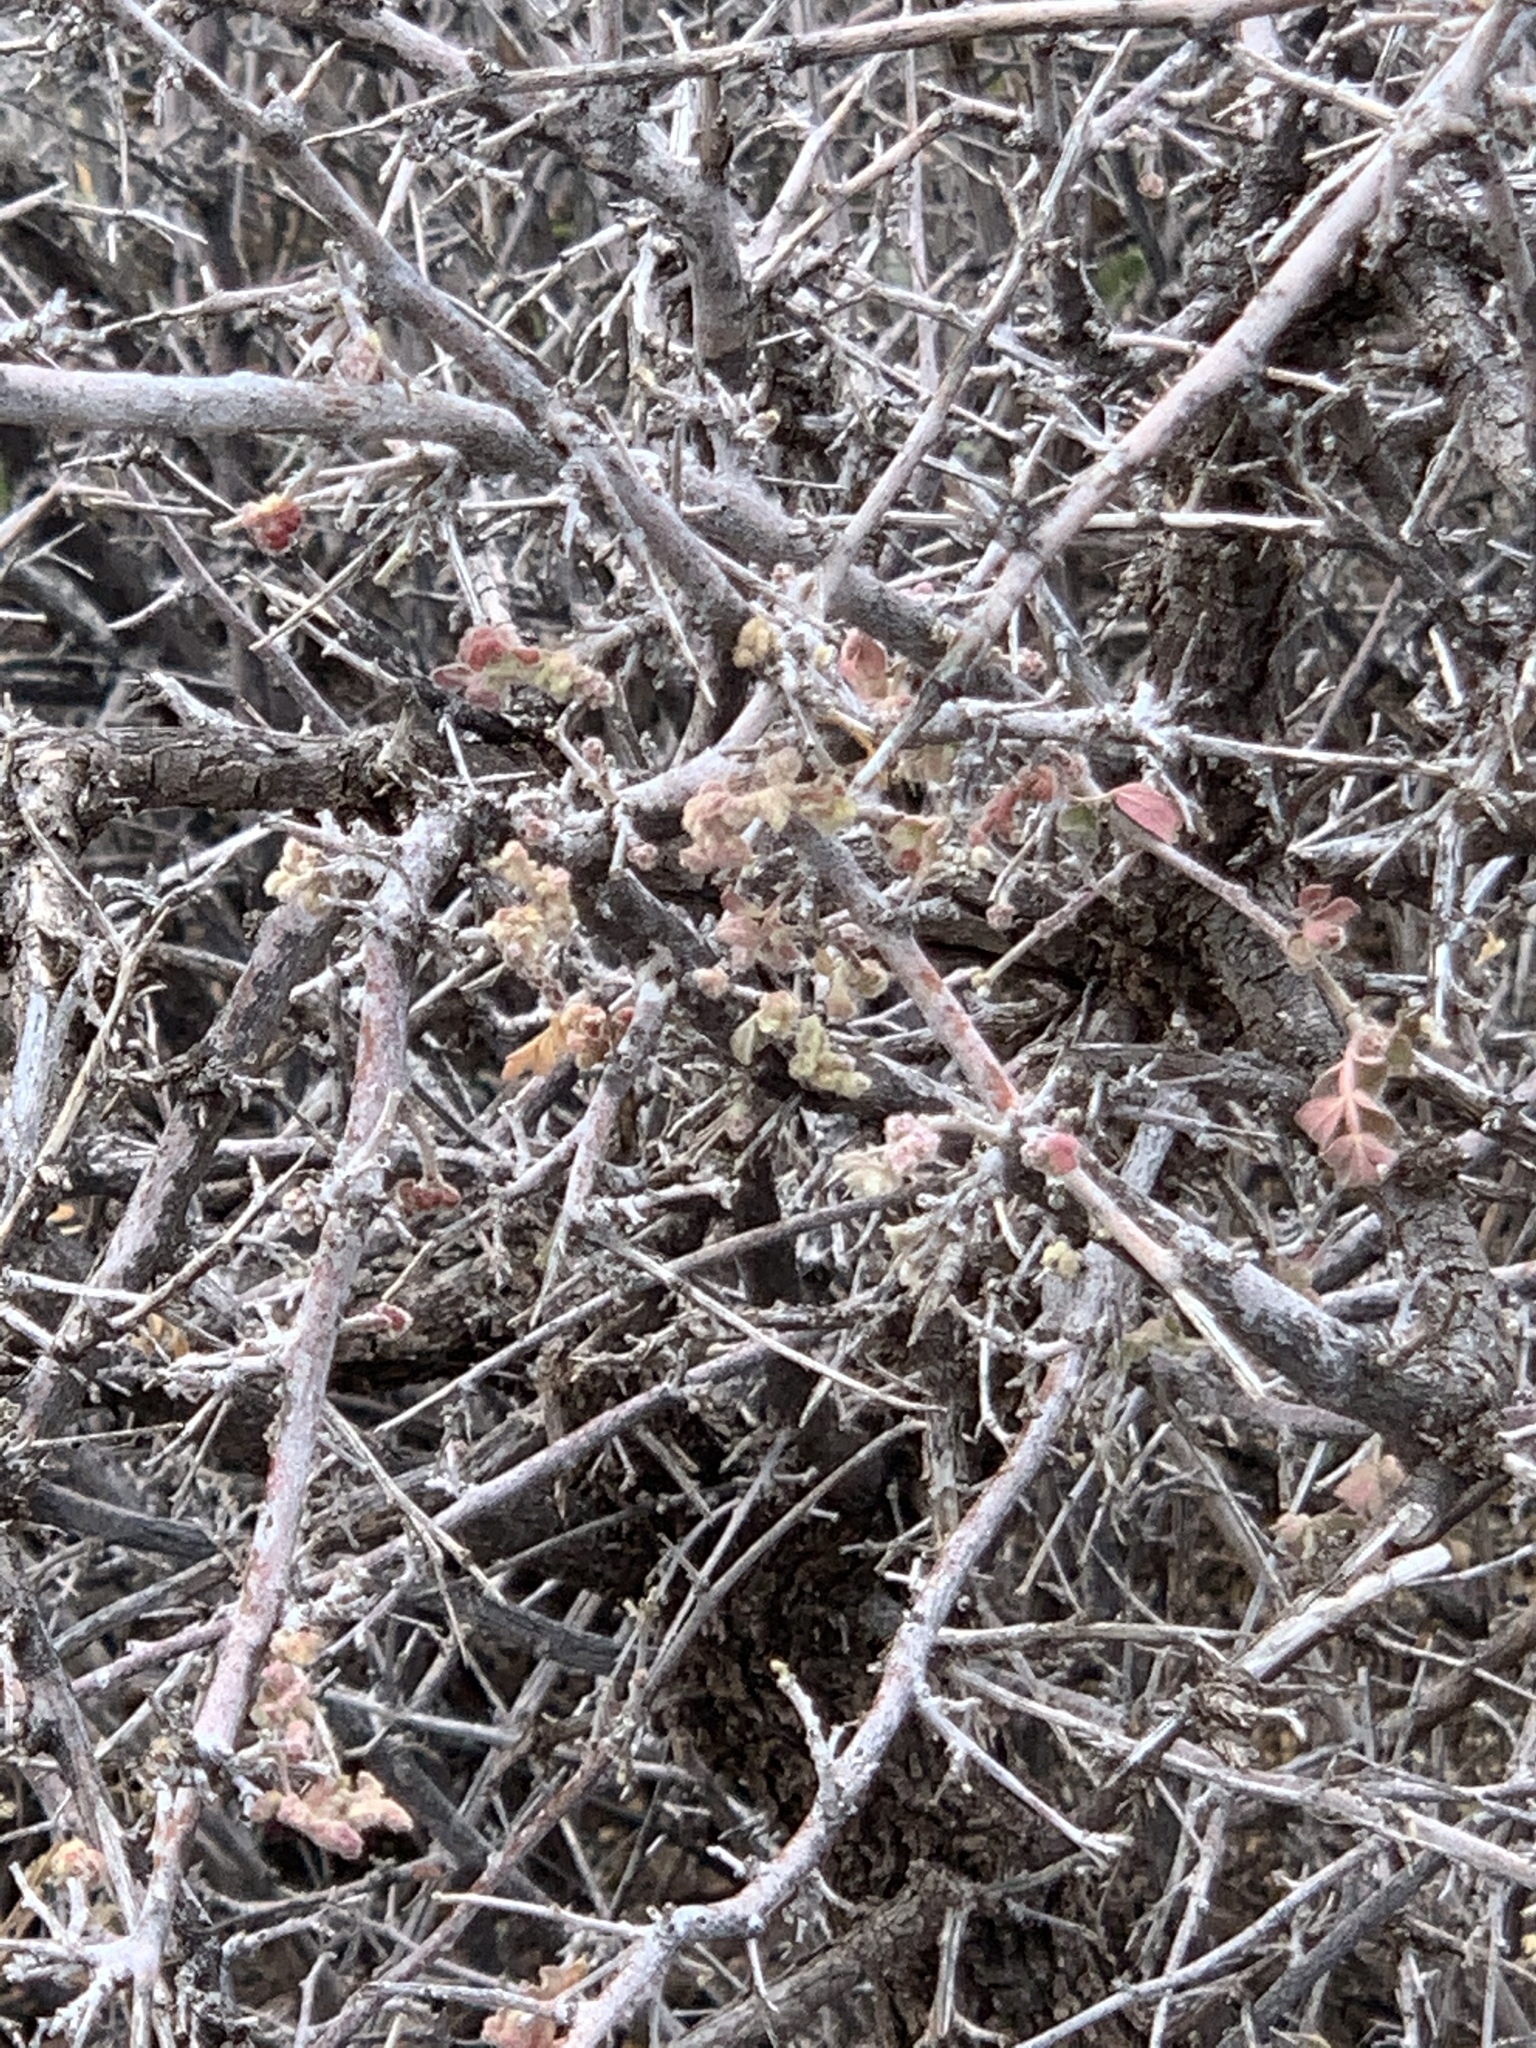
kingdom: Plantae
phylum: Tracheophyta
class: Magnoliopsida
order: Sapindales
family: Anacardiaceae
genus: Rhus
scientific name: Rhus microphylla
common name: Desert sumac
